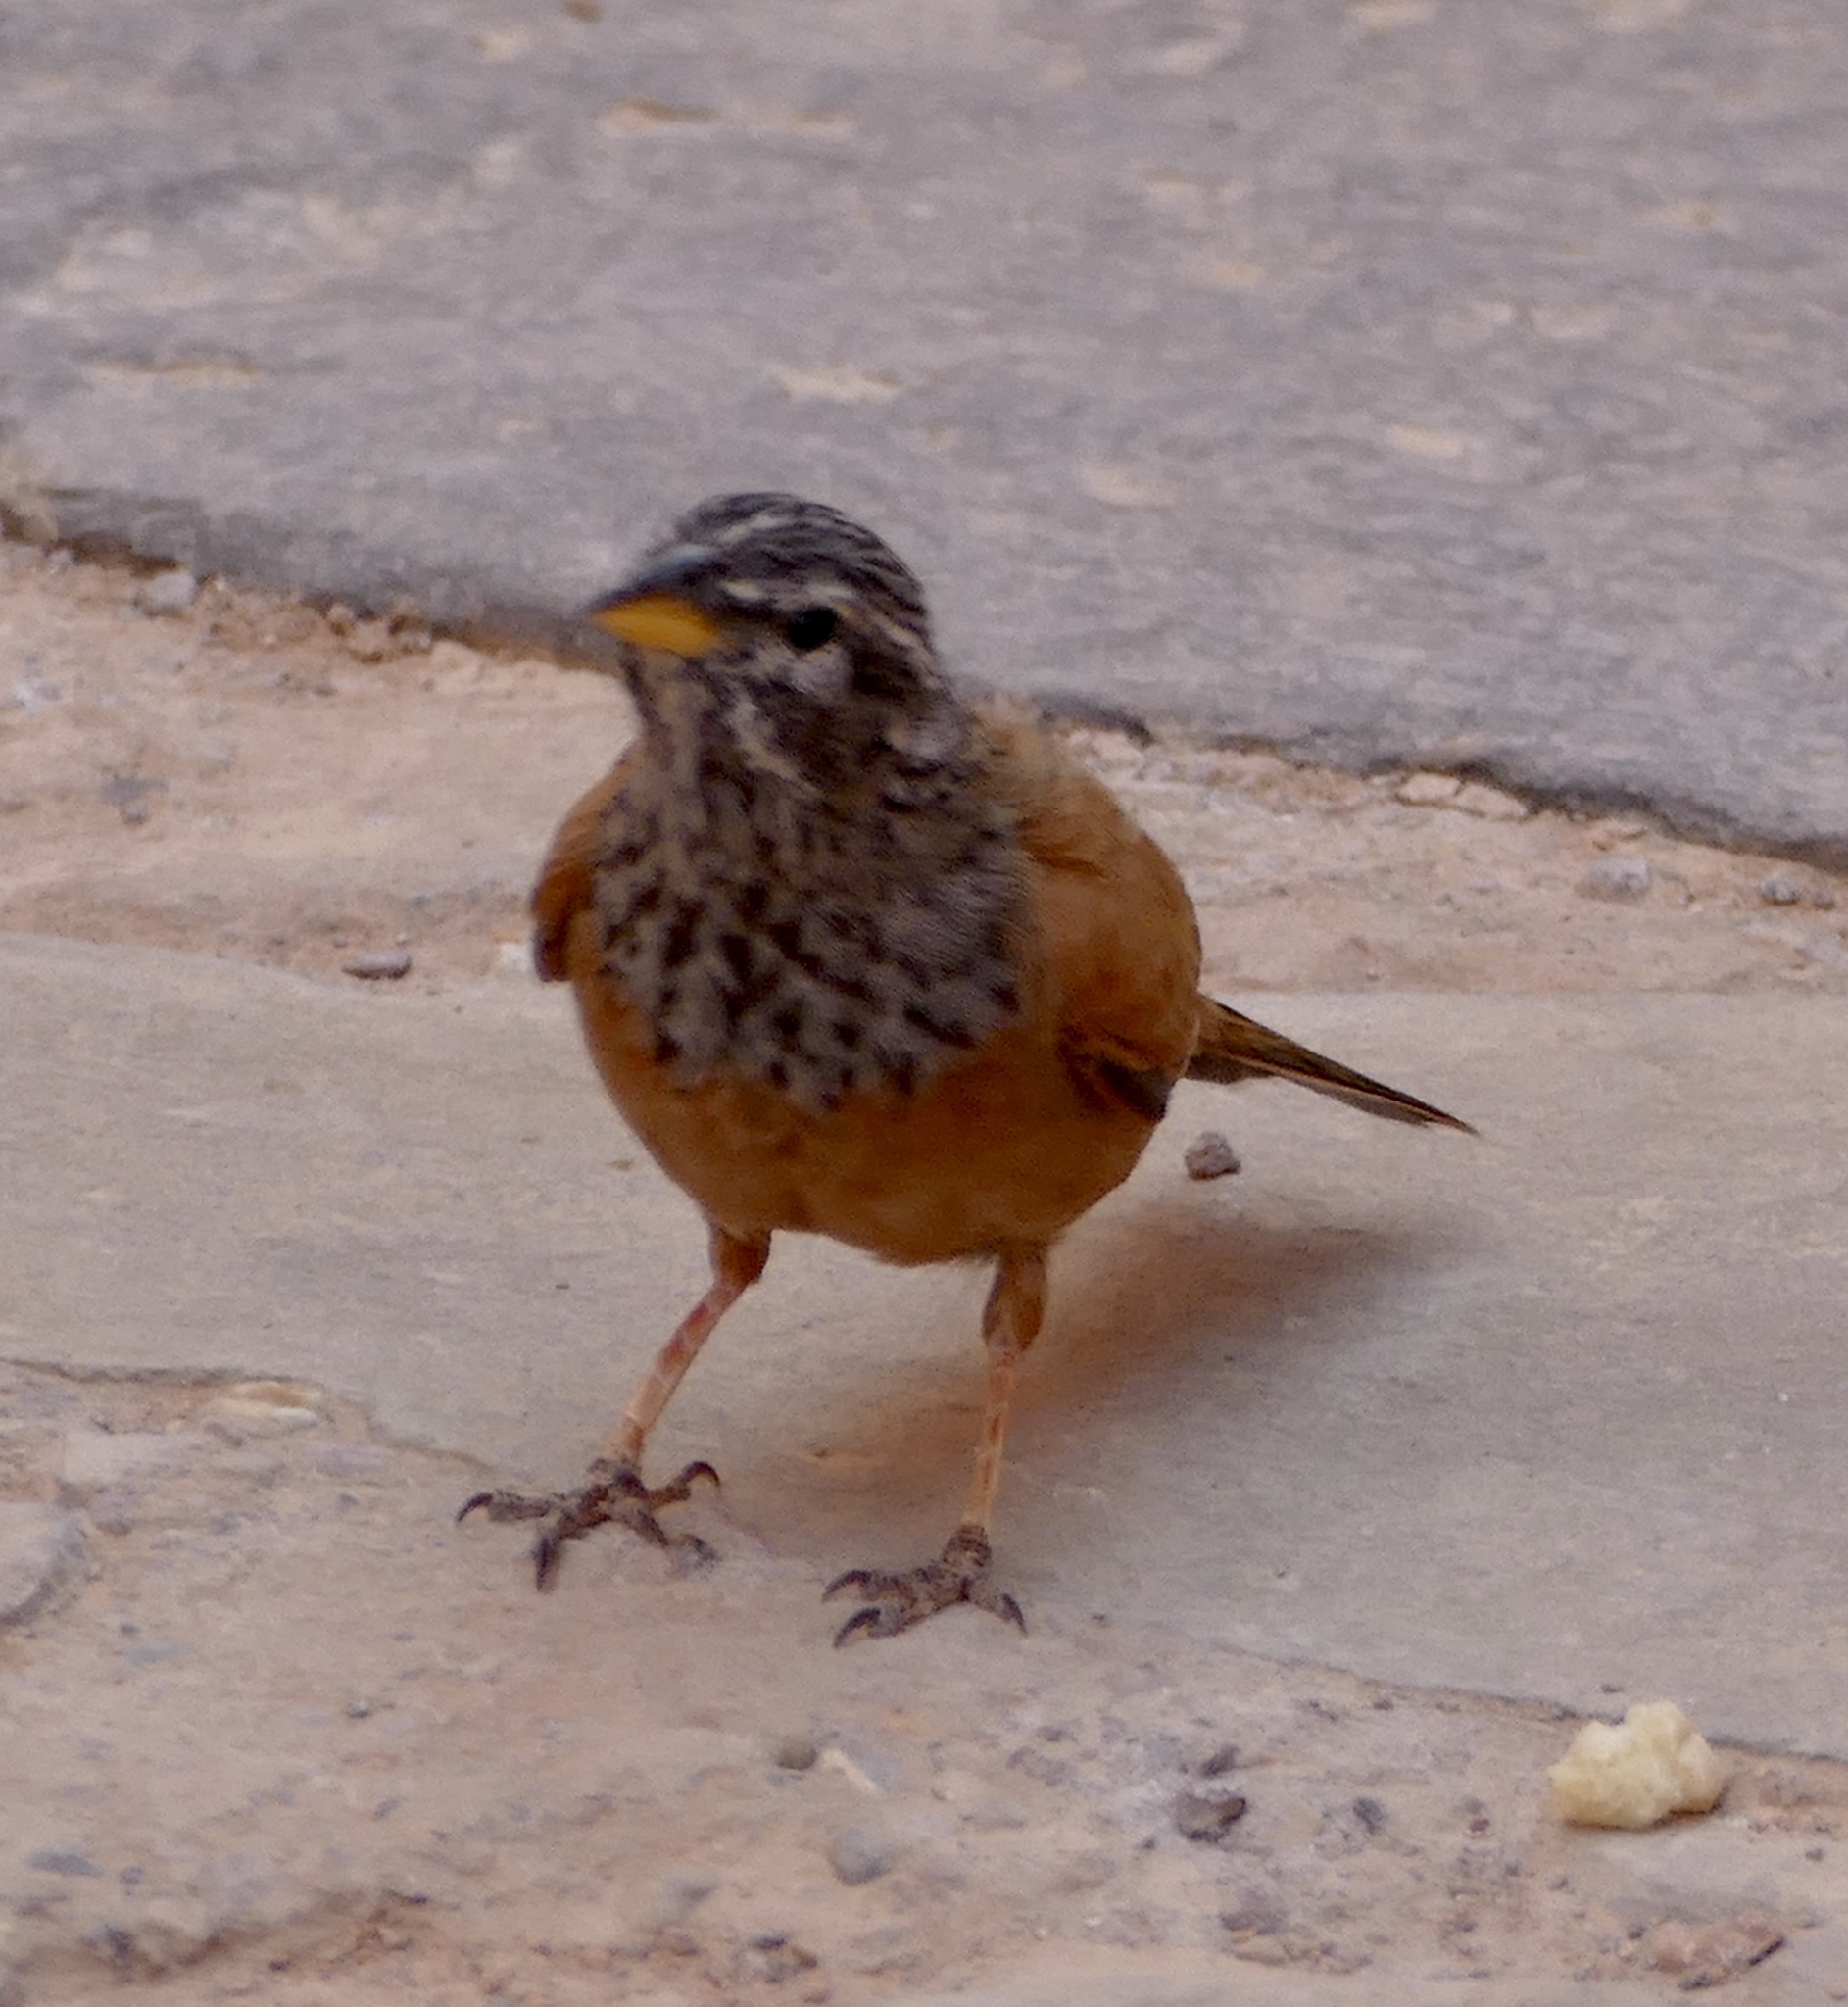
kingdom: Animalia
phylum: Chordata
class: Aves
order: Passeriformes
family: Emberizidae
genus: Emberiza
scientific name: Emberiza sahari
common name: House bunting
